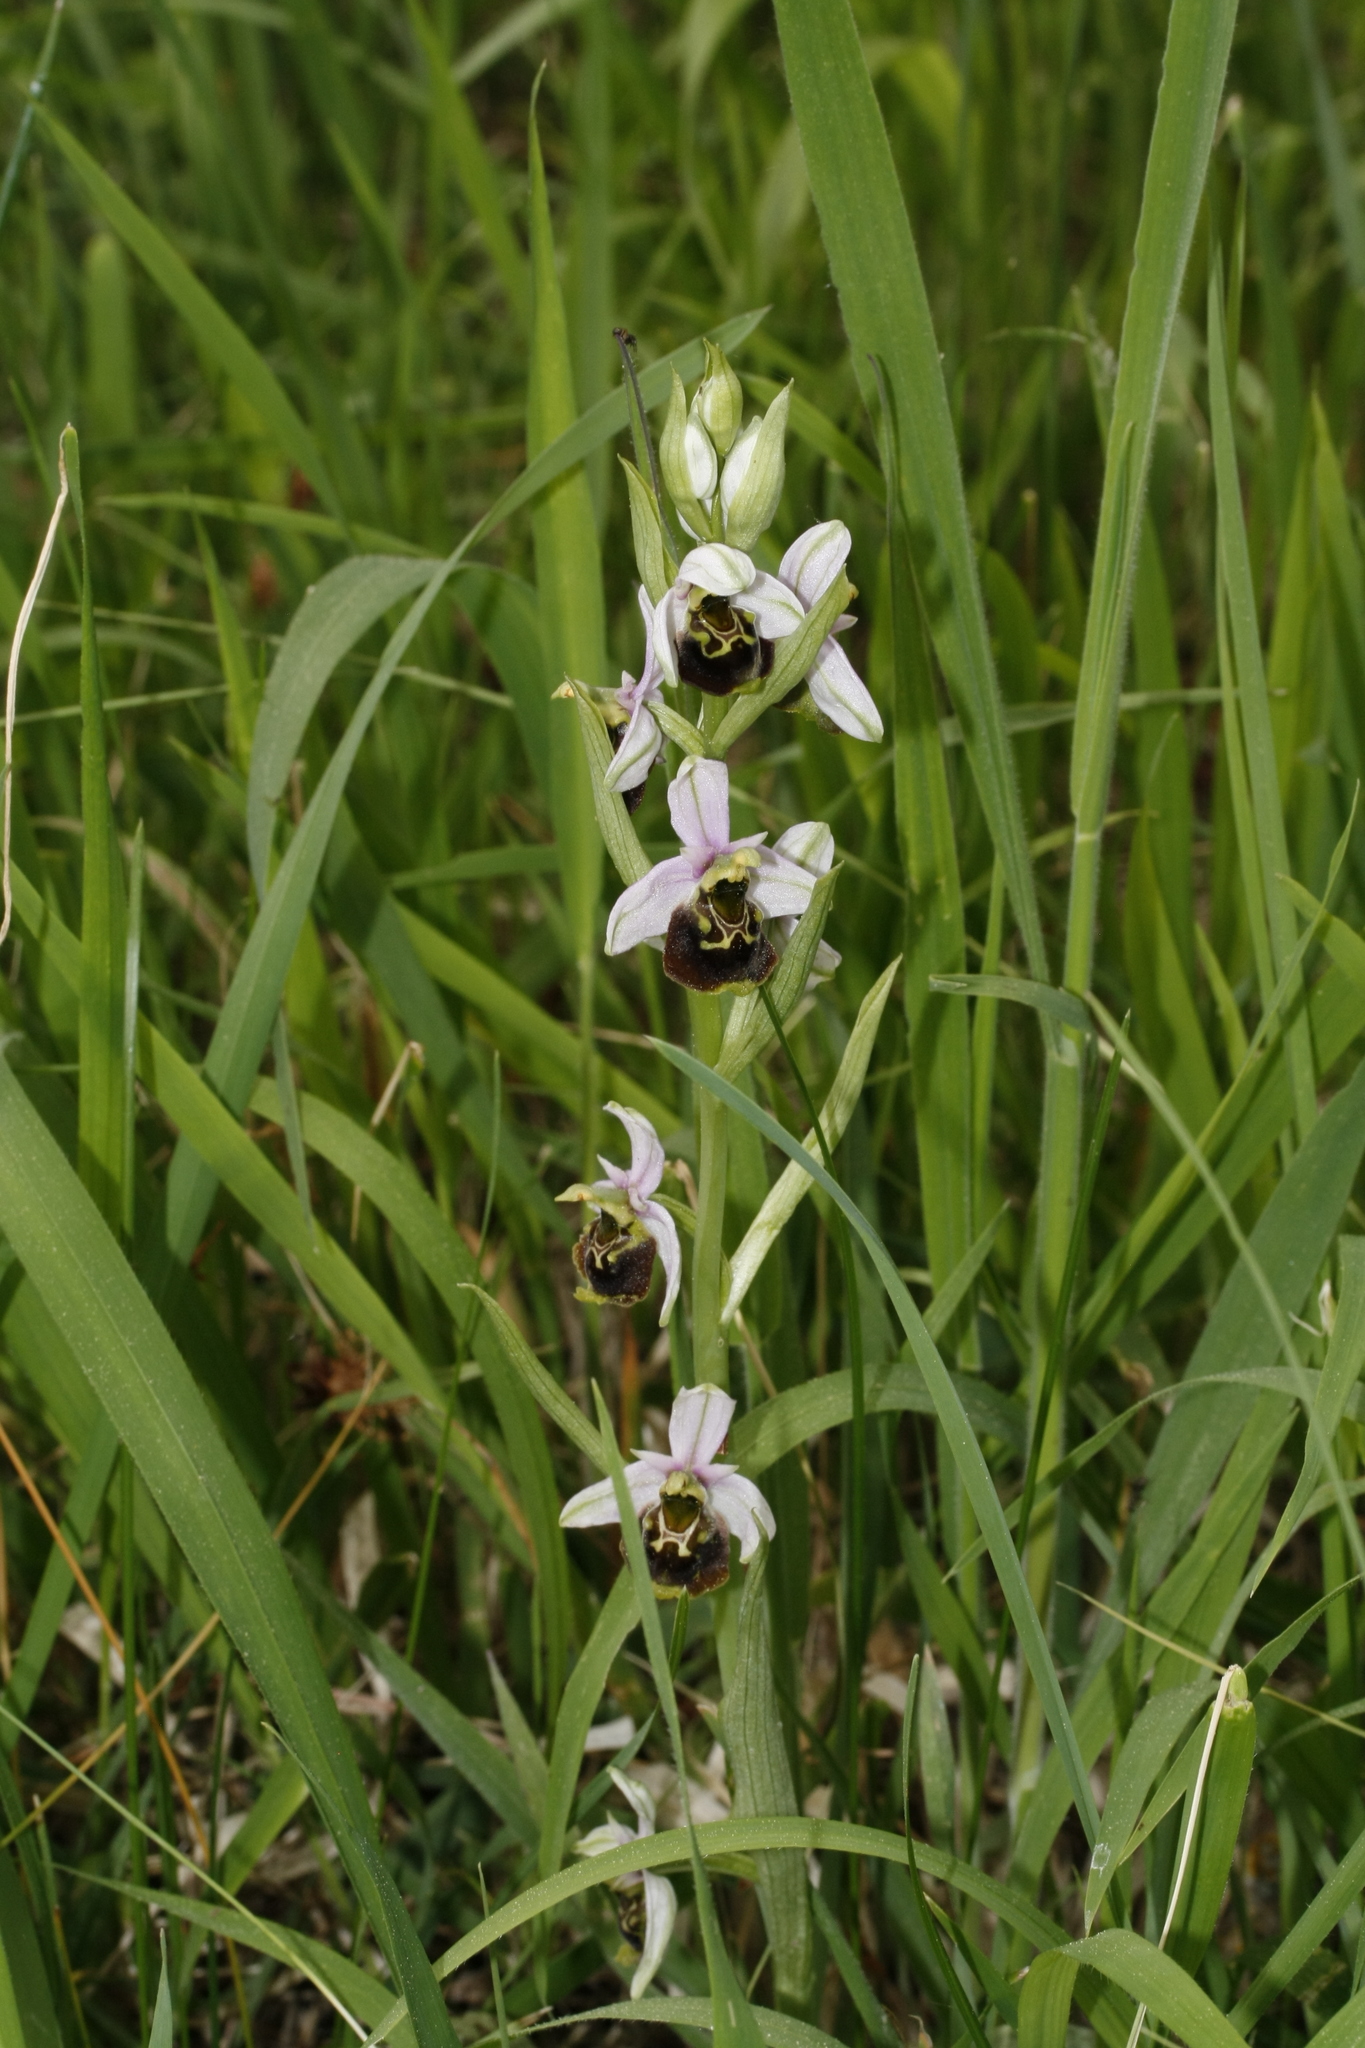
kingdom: Plantae
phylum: Tracheophyta
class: Liliopsida
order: Asparagales
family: Orchidaceae
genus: Ophrys
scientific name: Ophrys holosericea
